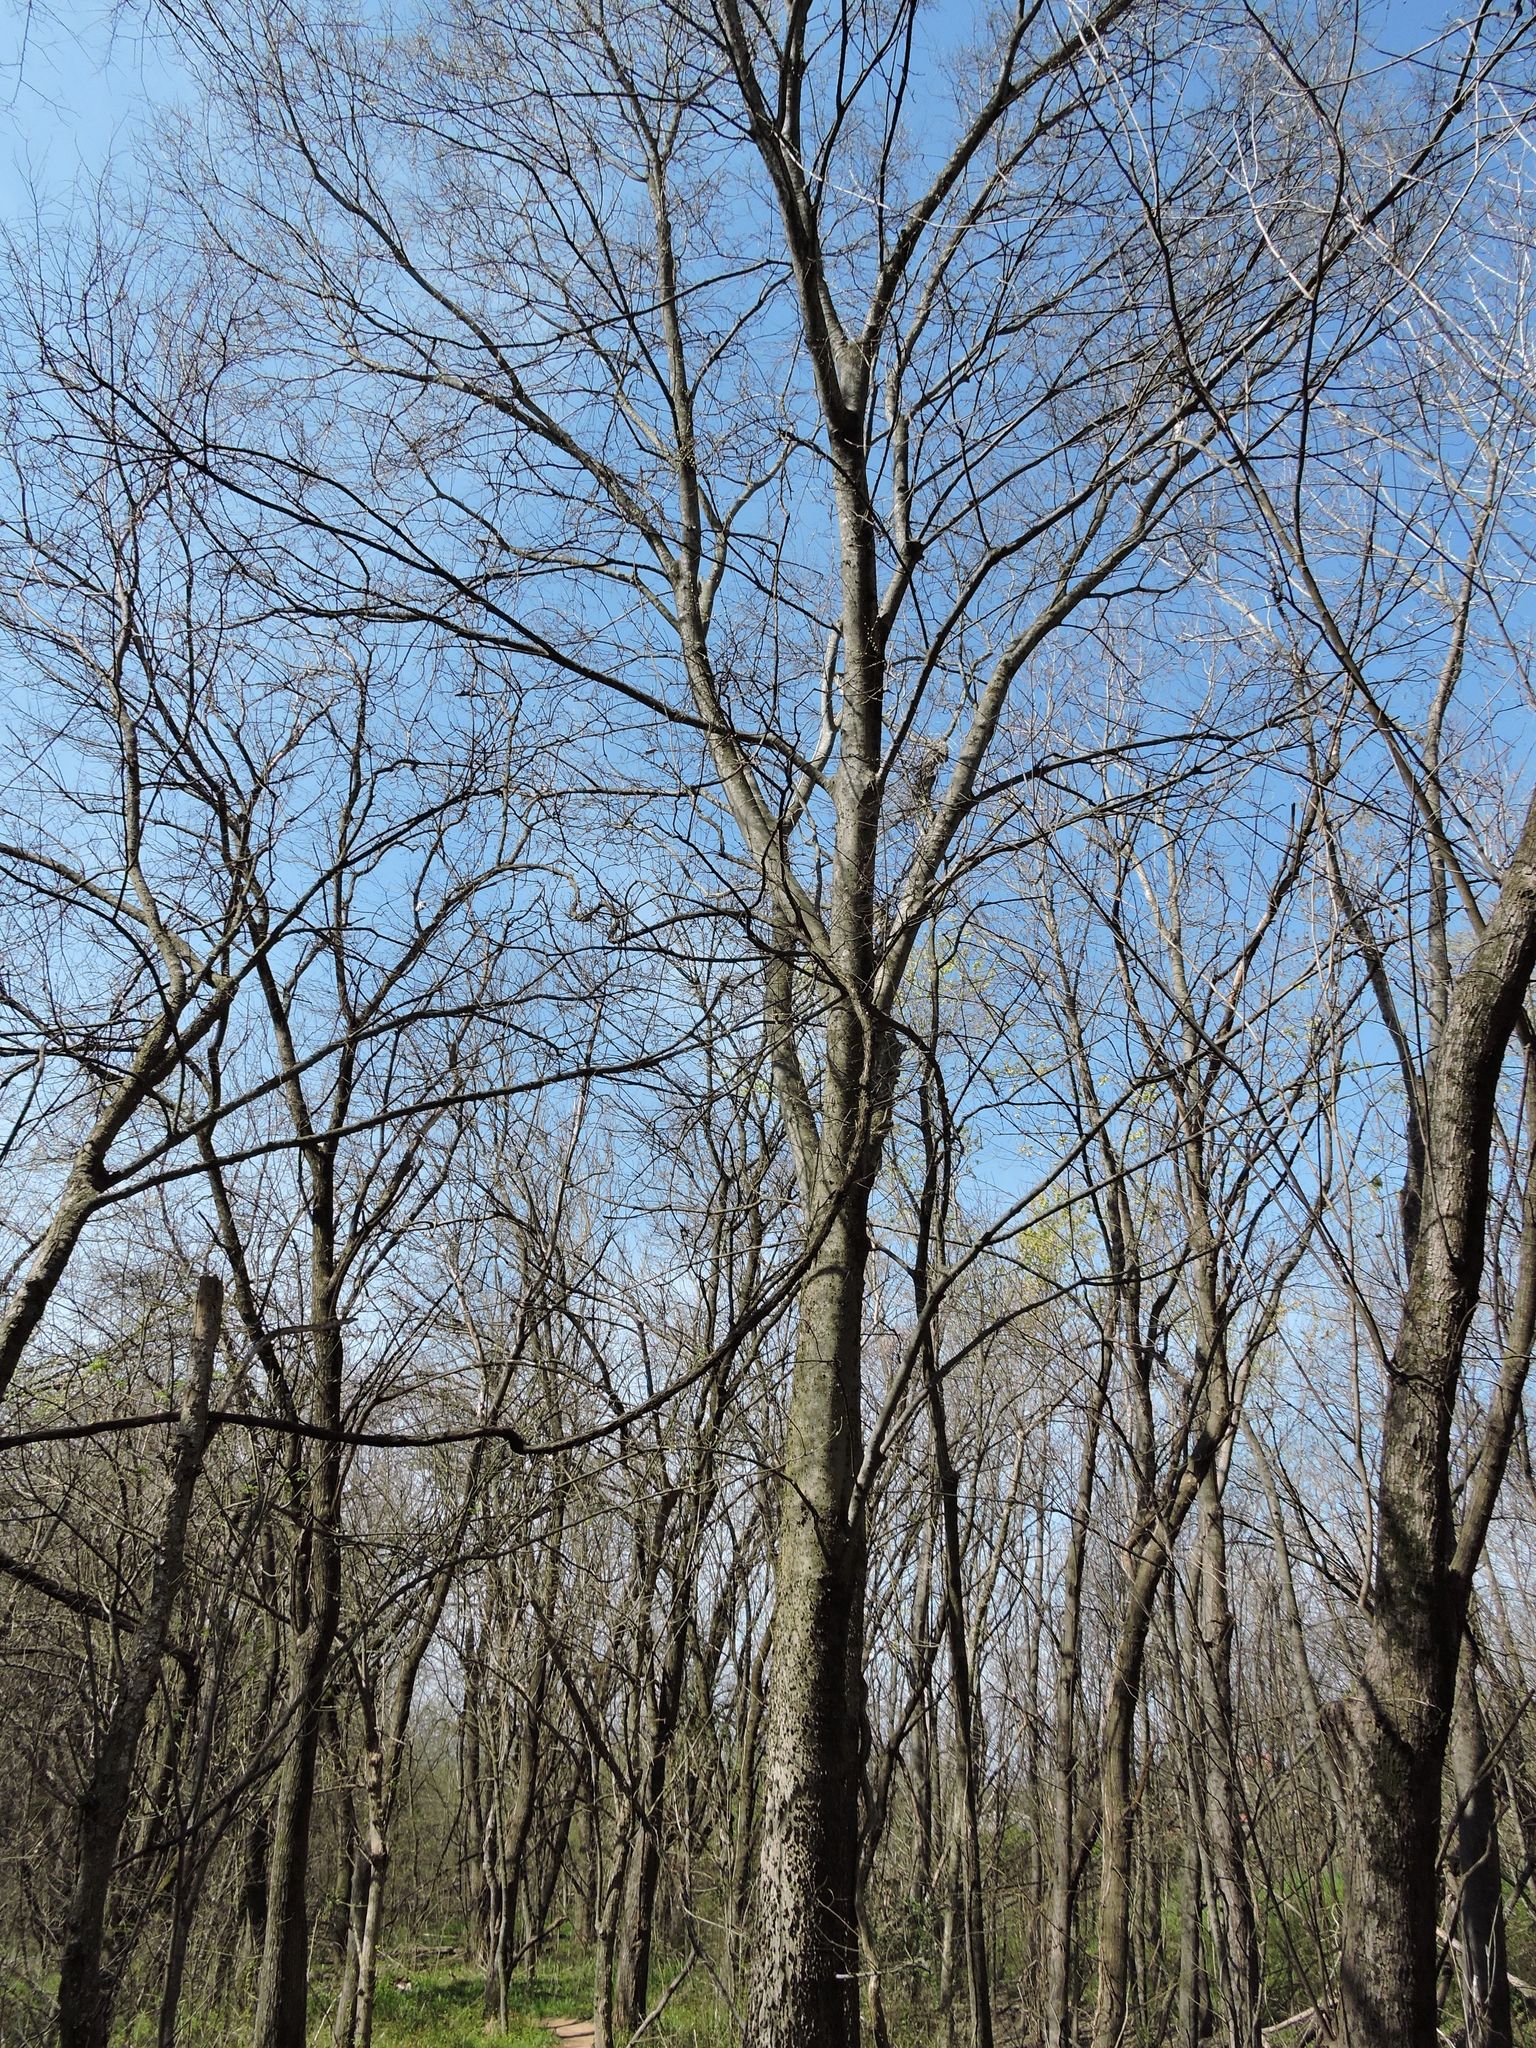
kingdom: Plantae
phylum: Tracheophyta
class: Magnoliopsida
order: Rosales
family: Cannabaceae
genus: Celtis
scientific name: Celtis occidentalis
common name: Common hackberry
